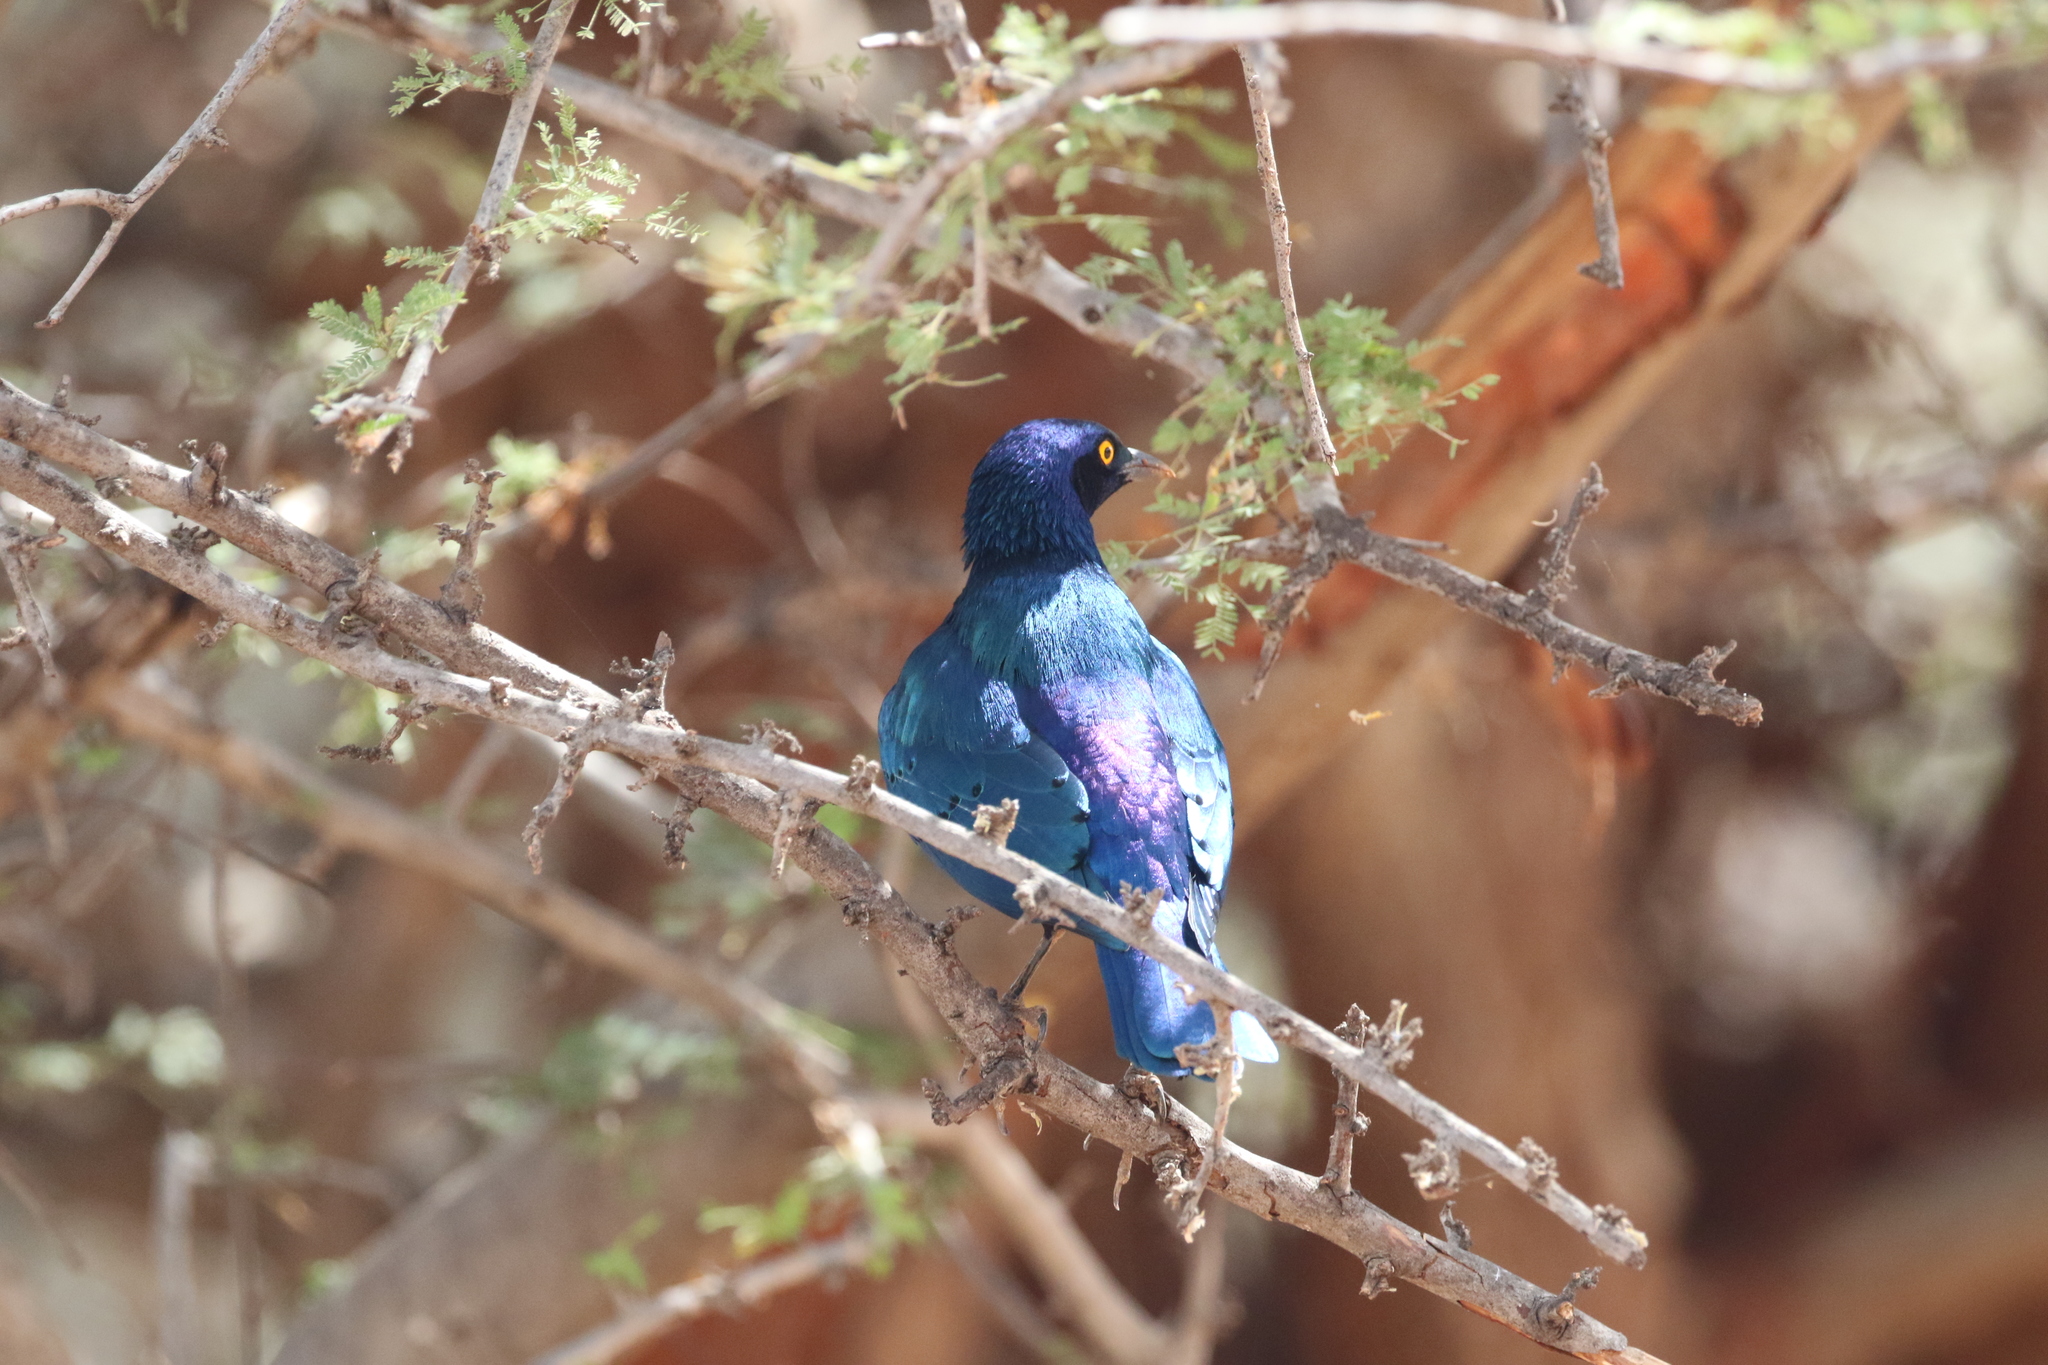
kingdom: Animalia
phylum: Chordata
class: Aves
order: Passeriformes
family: Sturnidae
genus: Lamprotornis
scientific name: Lamprotornis chalybaeus
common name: Greater blue-eared starling
